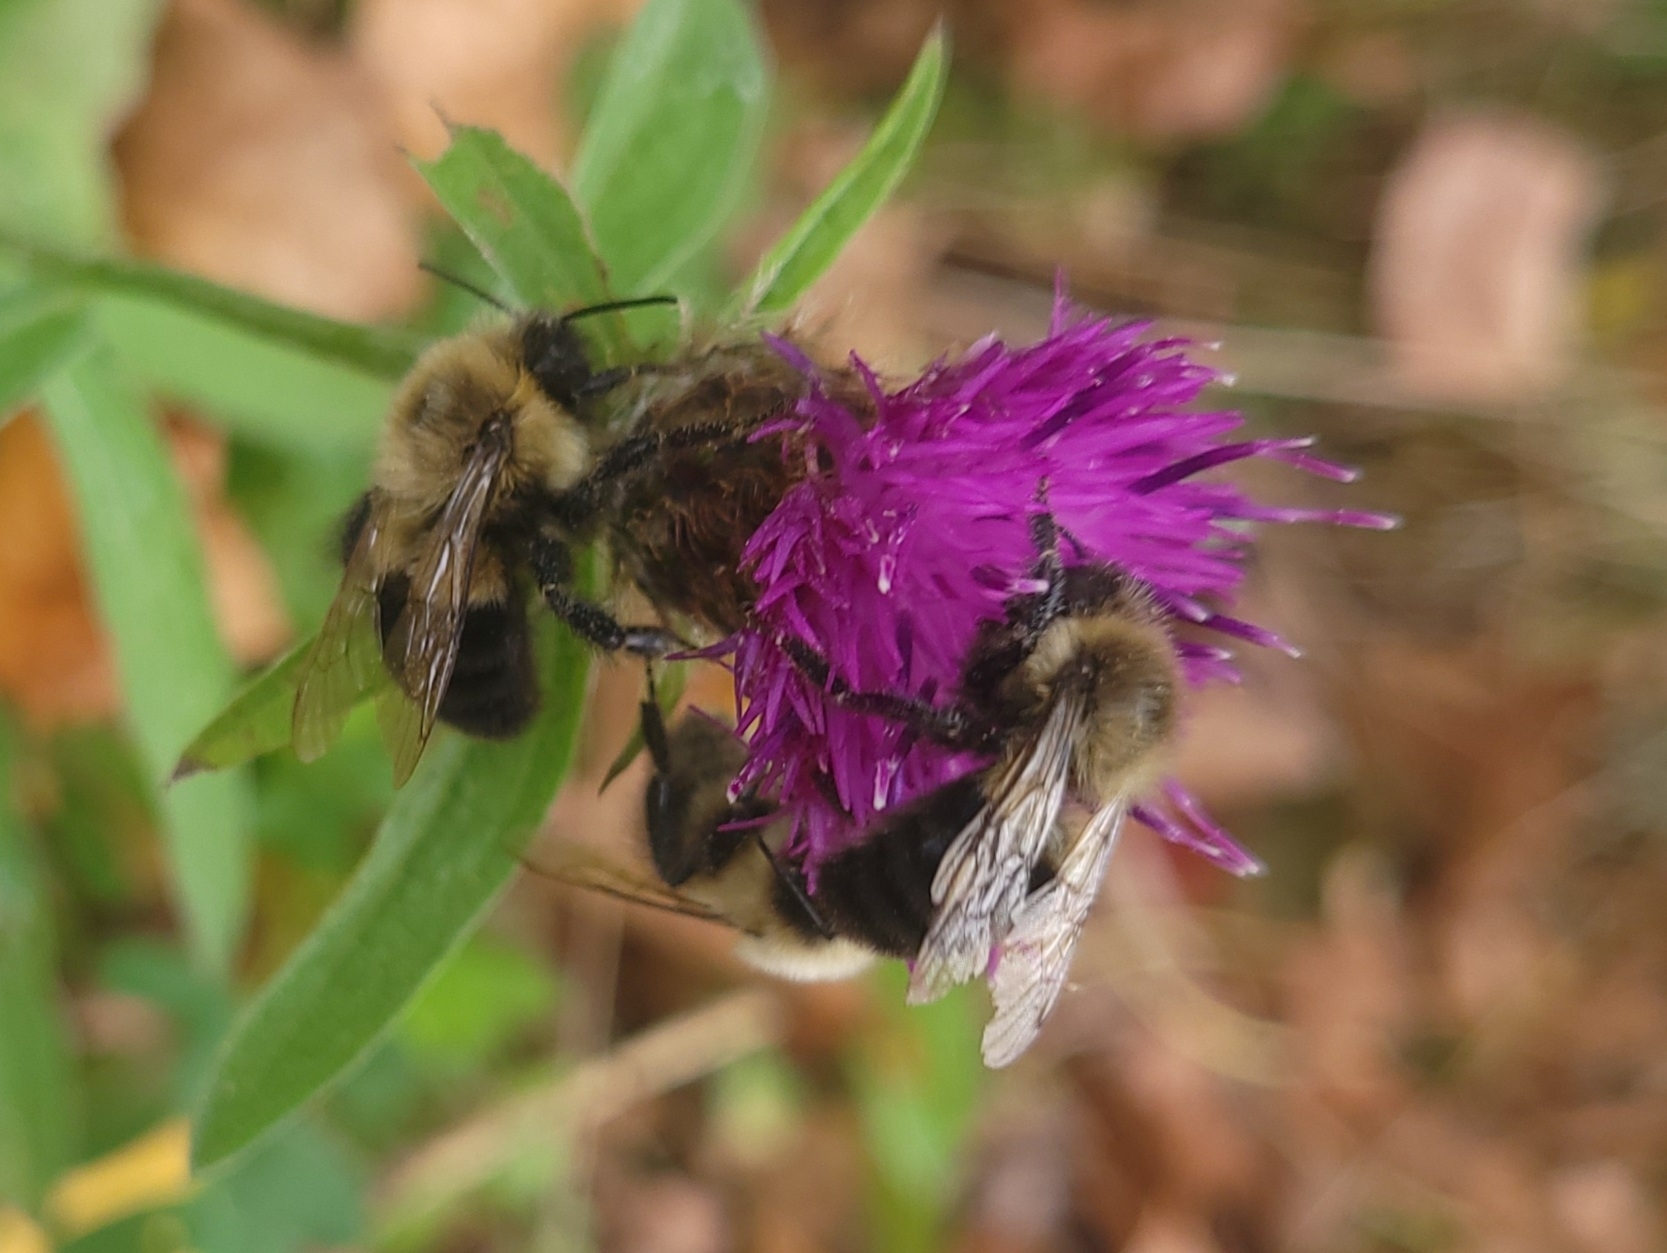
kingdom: Animalia
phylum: Arthropoda
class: Insecta
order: Hymenoptera
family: Apidae
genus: Bombus
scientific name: Bombus impatiens
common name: Common eastern bumble bee
